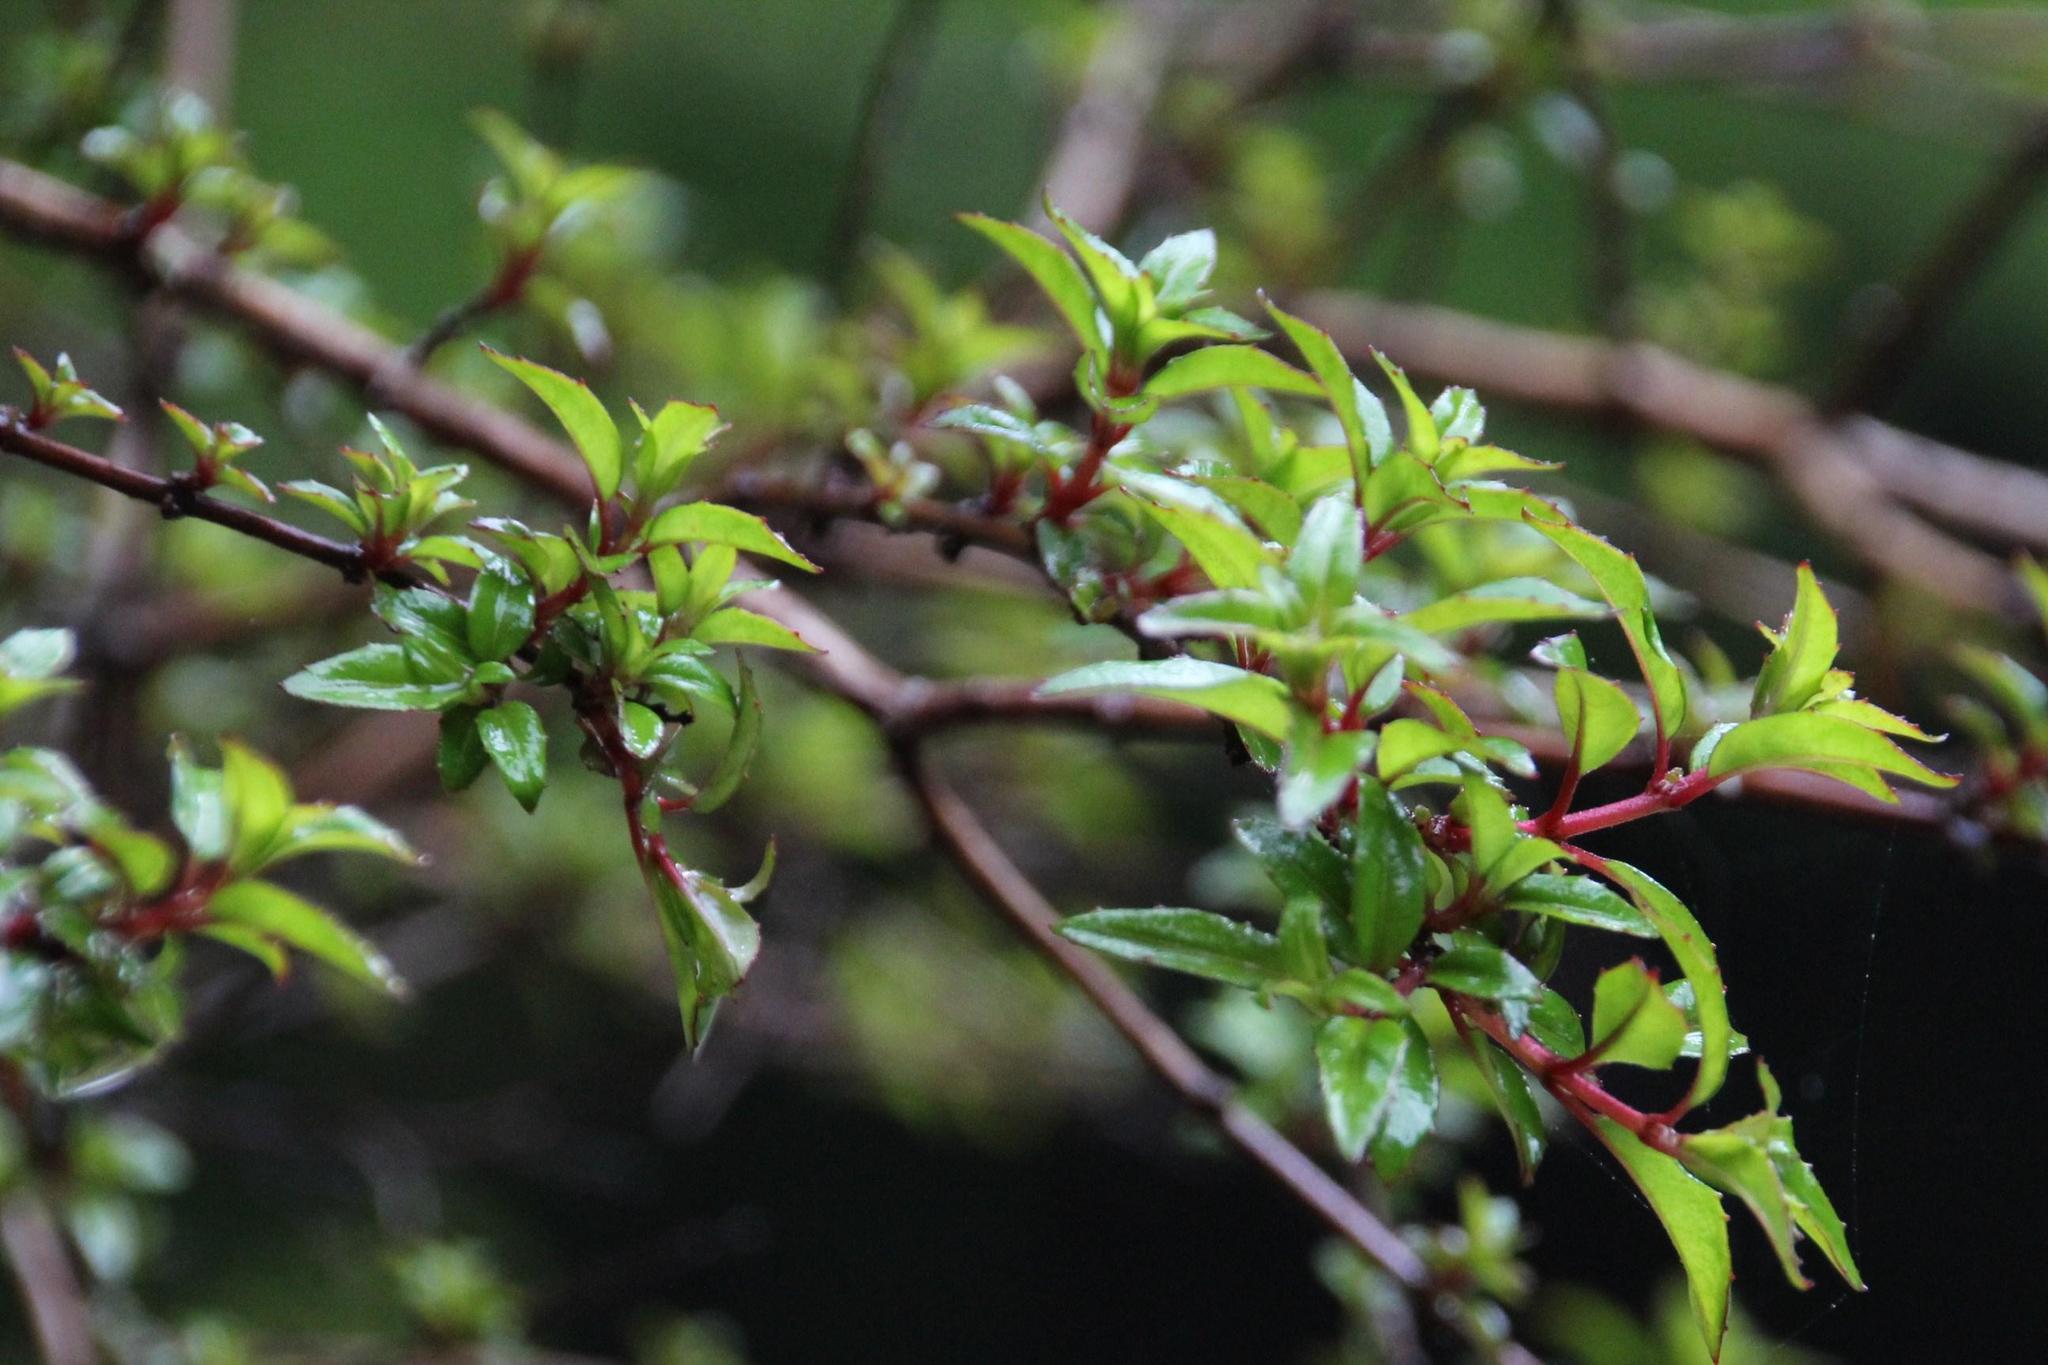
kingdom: Plantae
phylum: Tracheophyta
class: Magnoliopsida
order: Myrtales
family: Onagraceae
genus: Fuchsia
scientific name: Fuchsia magellanica
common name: Hardy fuchsia
